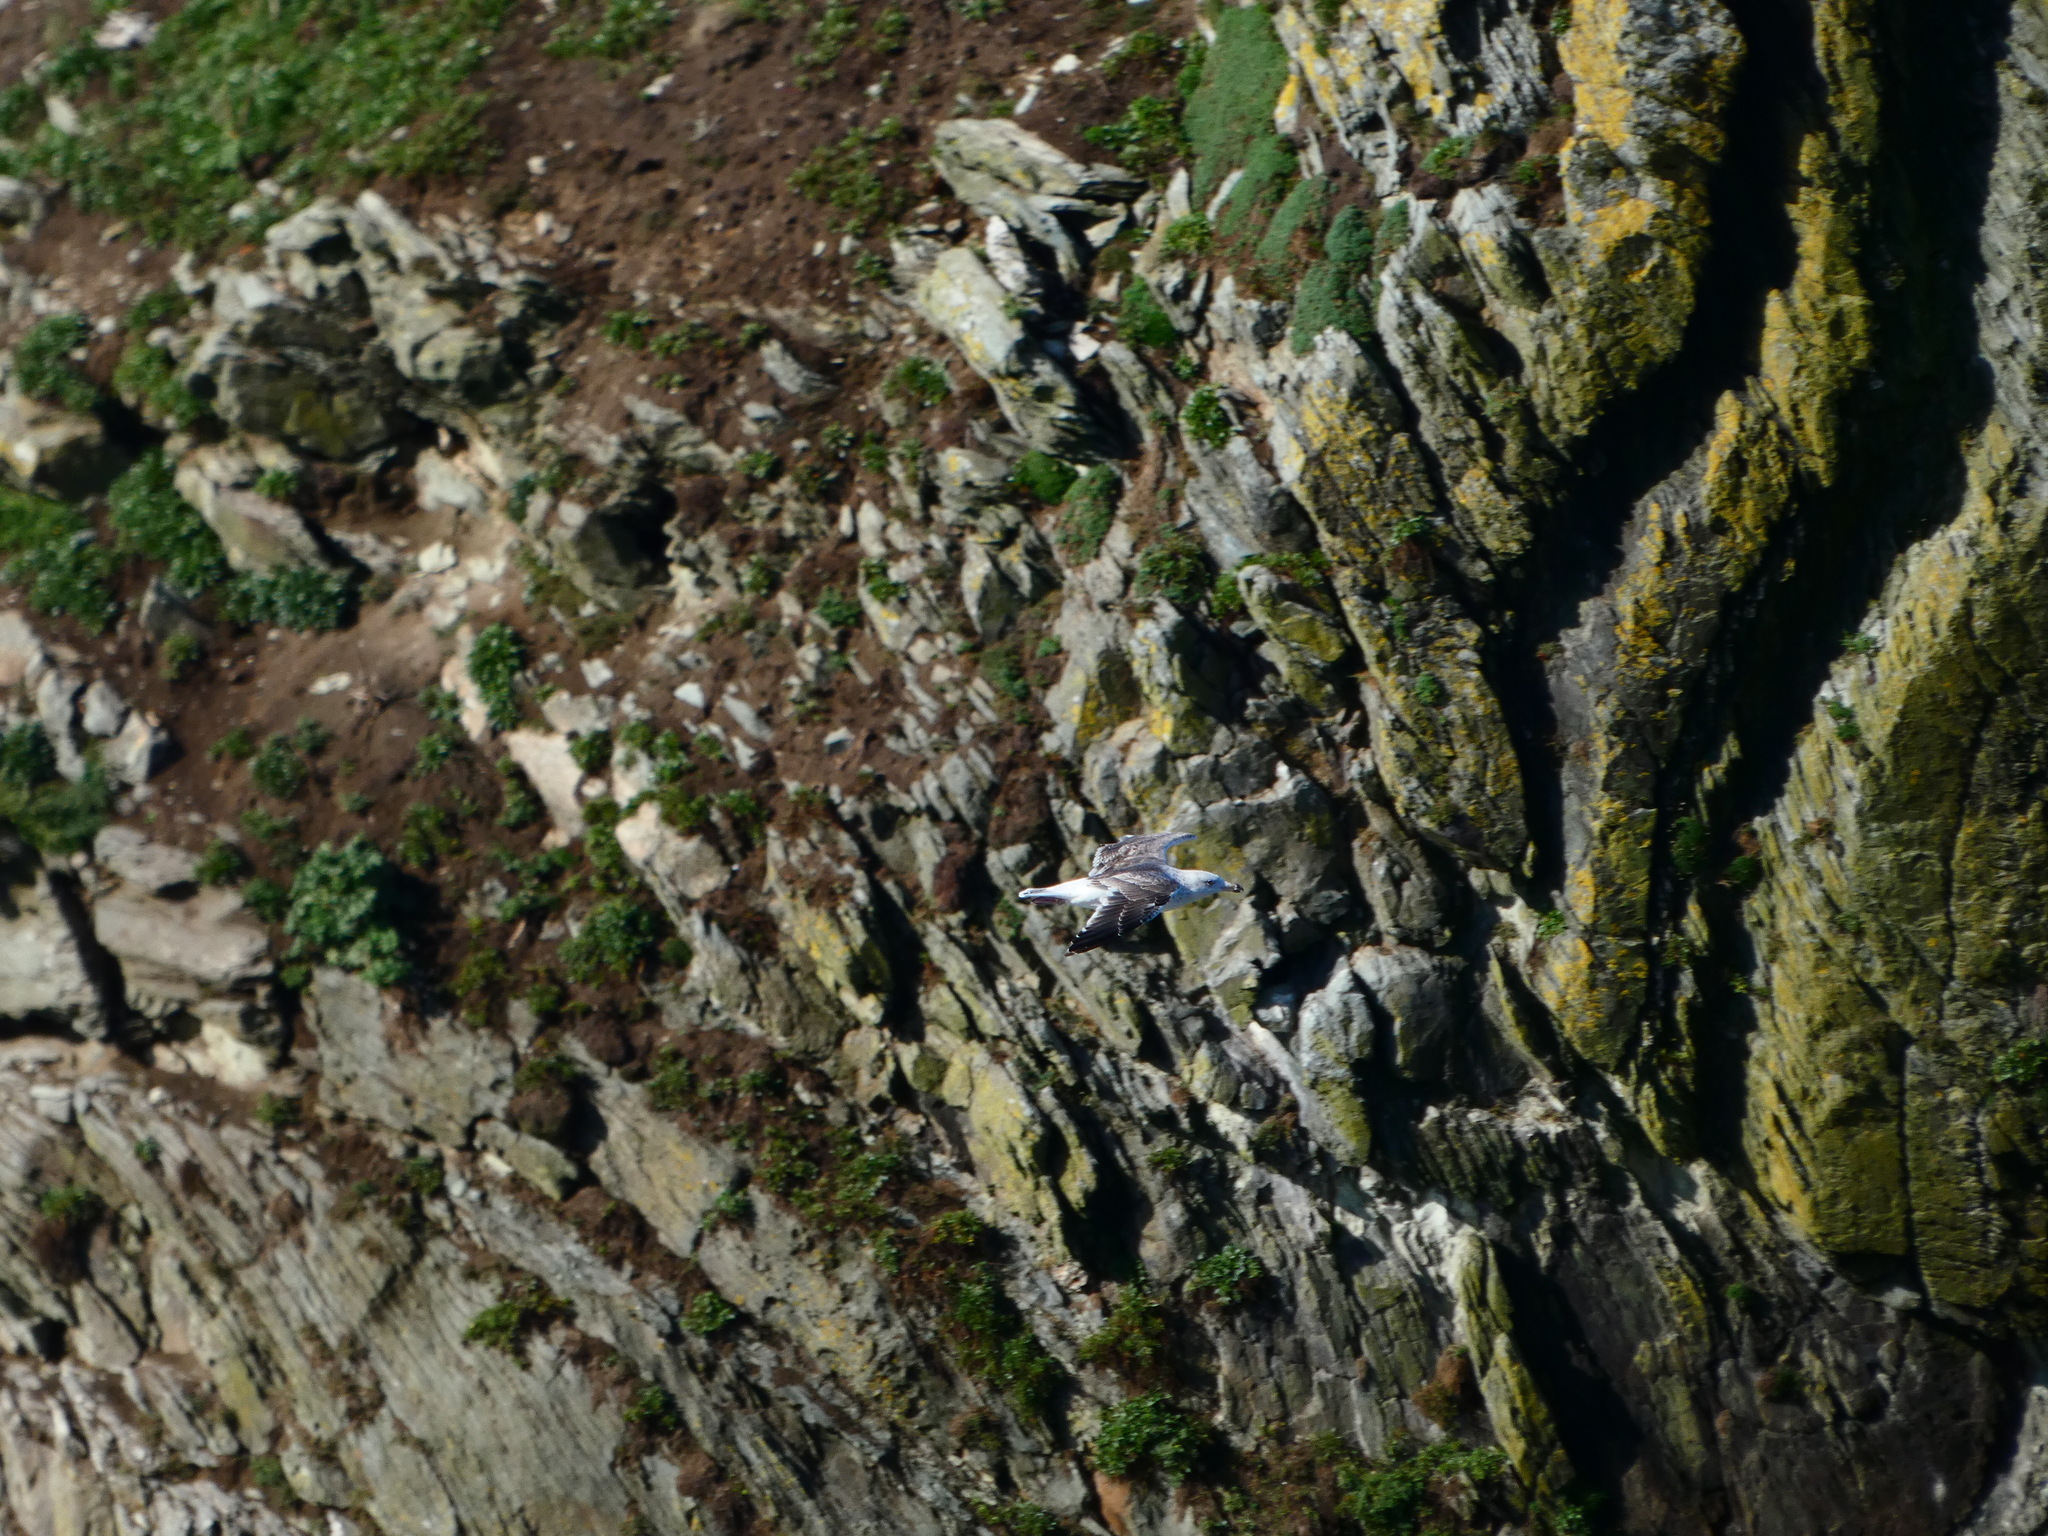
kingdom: Animalia
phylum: Chordata
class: Aves
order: Procellariiformes
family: Procellariidae
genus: Fulmarus
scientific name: Fulmarus glacialis
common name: Northern fulmar
